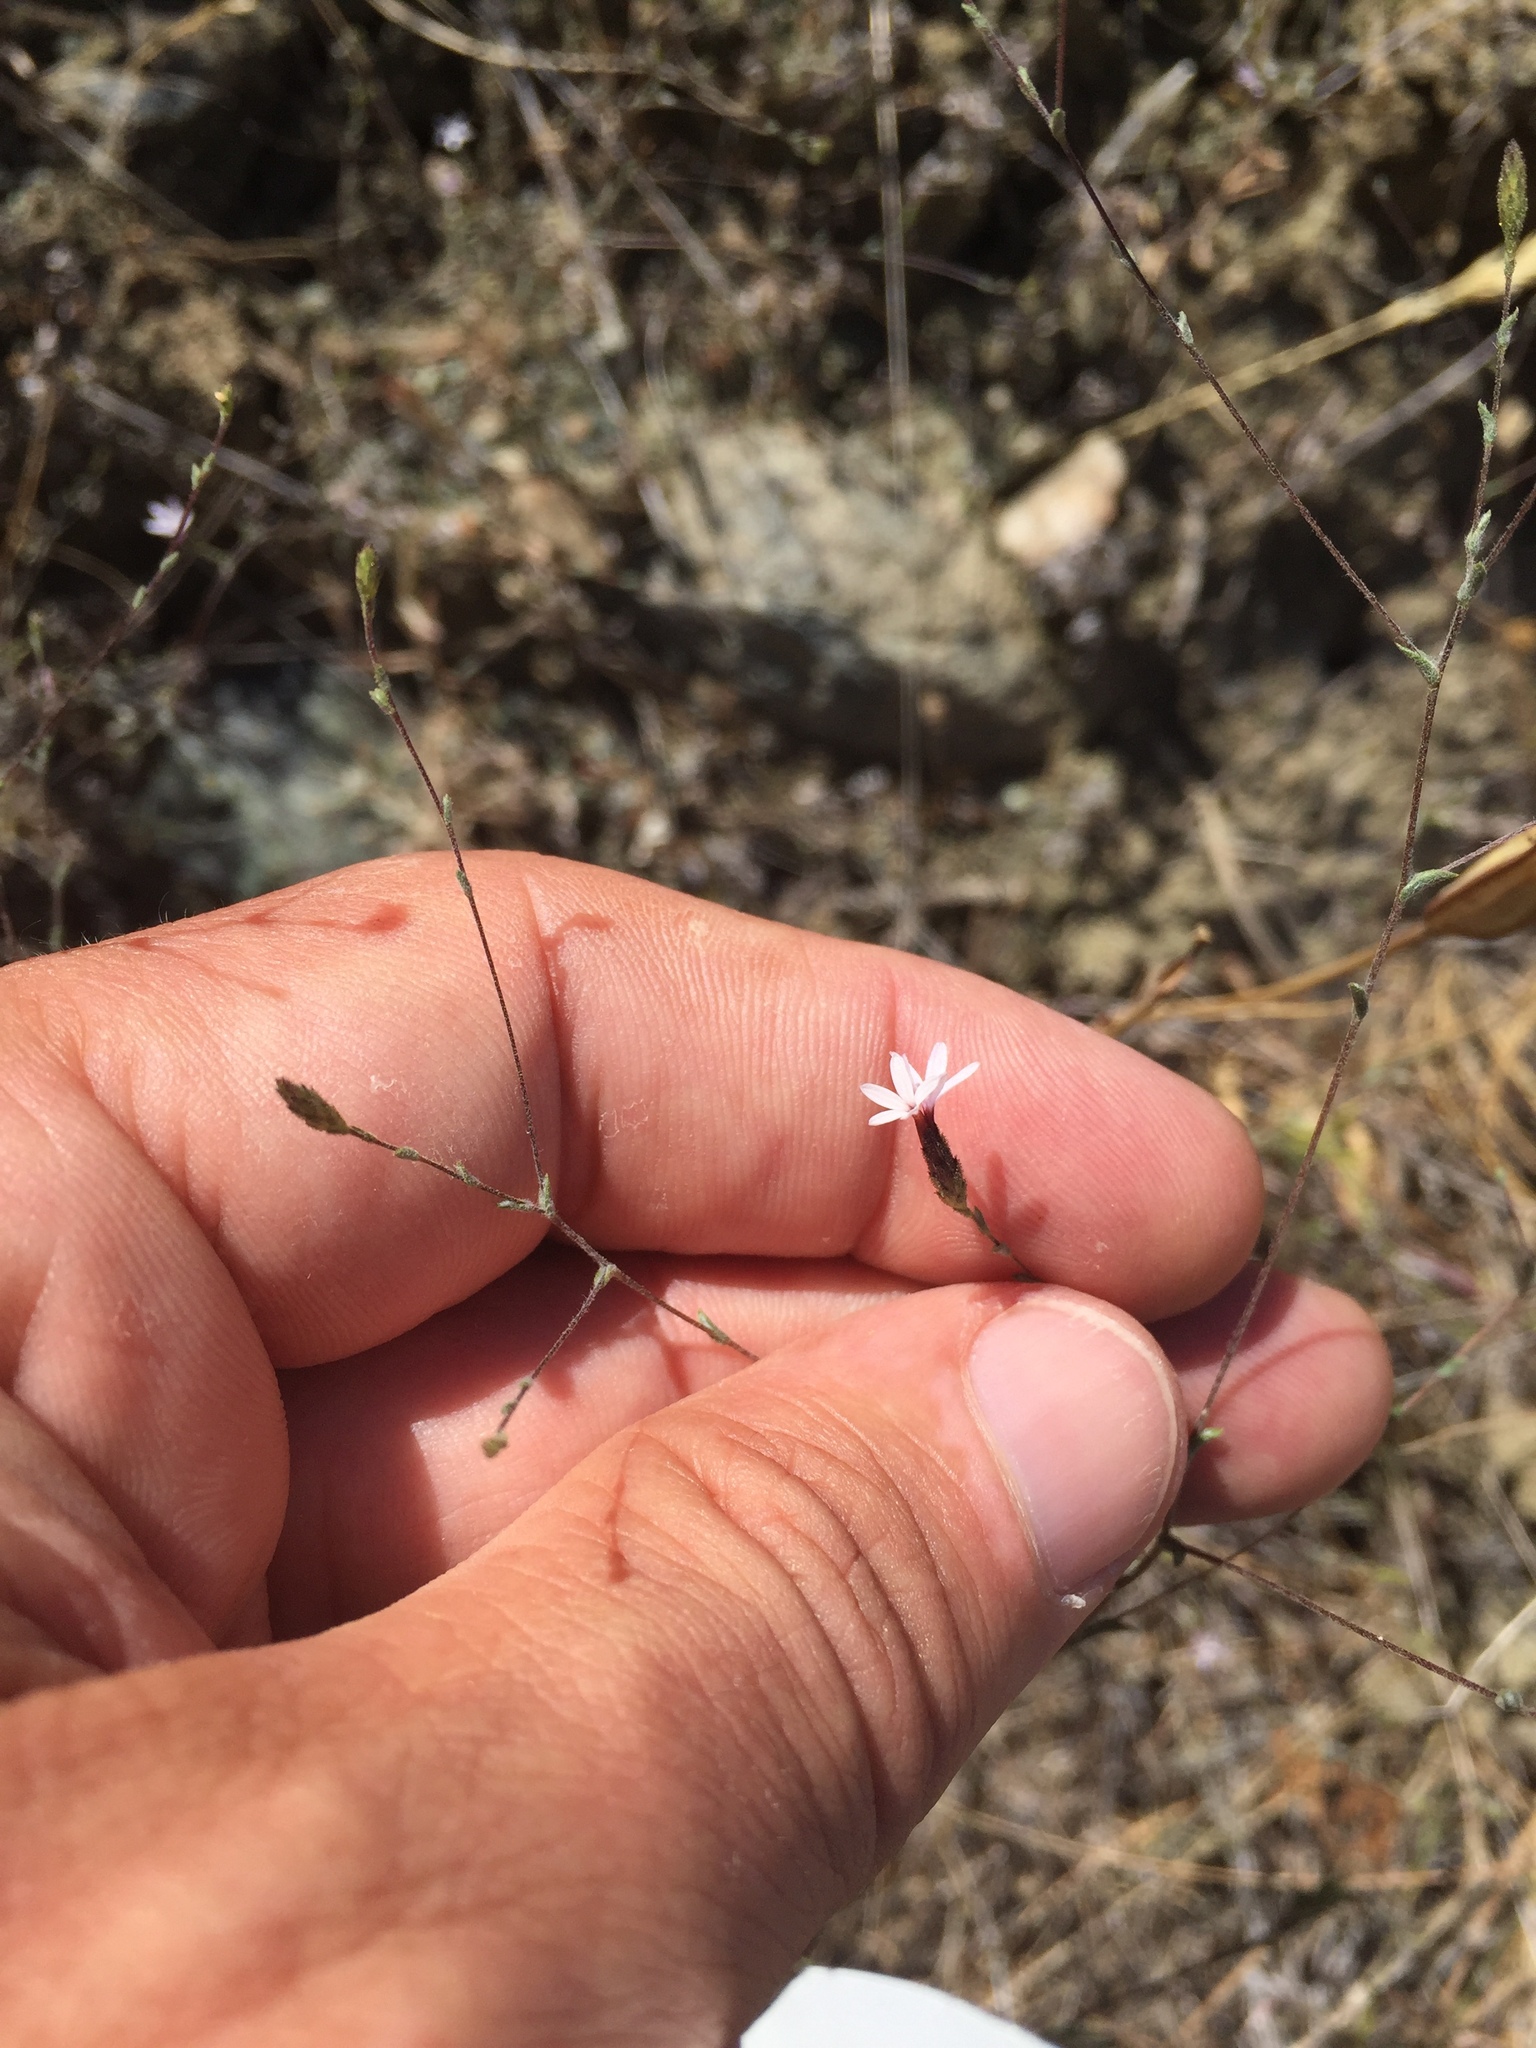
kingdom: Plantae
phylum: Tracheophyta
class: Magnoliopsida
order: Asterales
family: Asteraceae
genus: Lessingia
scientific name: Lessingia micradenia
